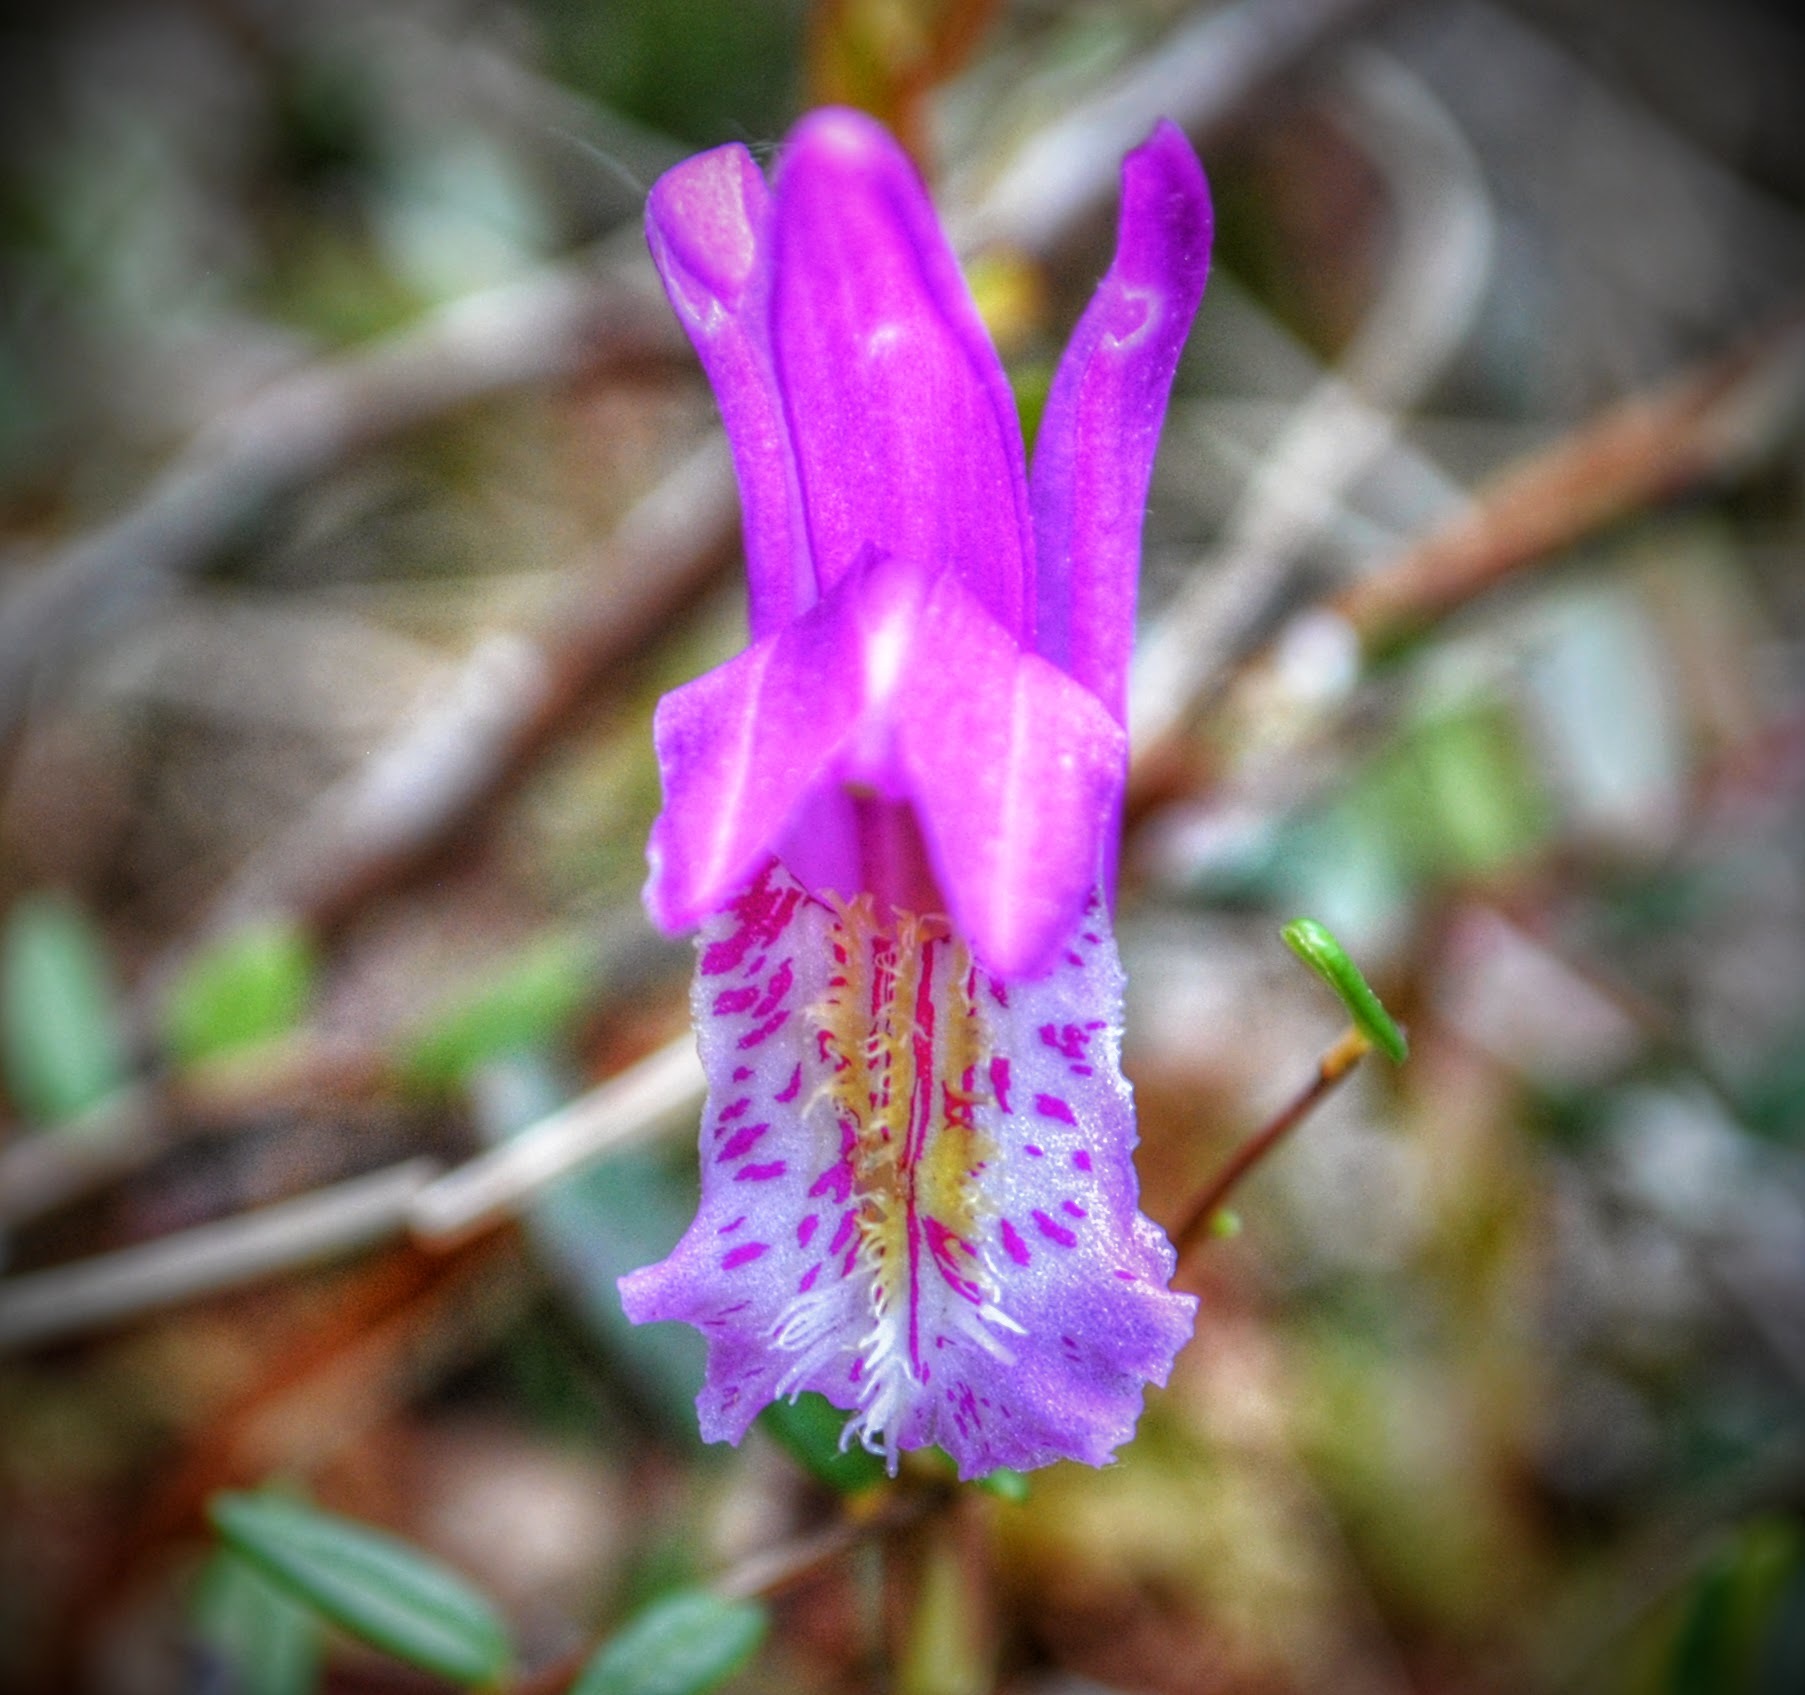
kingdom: Plantae
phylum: Tracheophyta
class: Liliopsida
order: Asparagales
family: Orchidaceae
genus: Arethusa
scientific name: Arethusa bulbosa
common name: Arethusa
